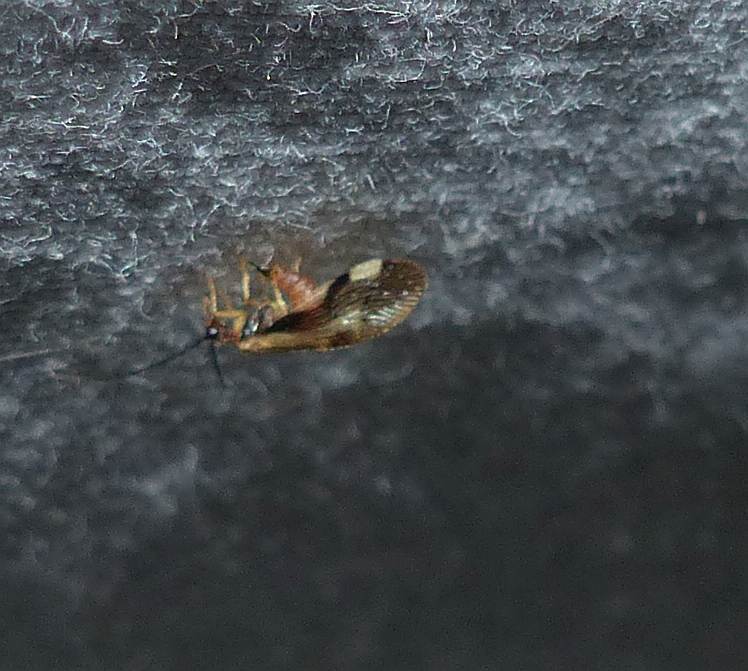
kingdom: Animalia
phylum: Arthropoda
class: Insecta
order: Neuroptera
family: Sisyridae
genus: Climacia
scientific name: Climacia areolaris
